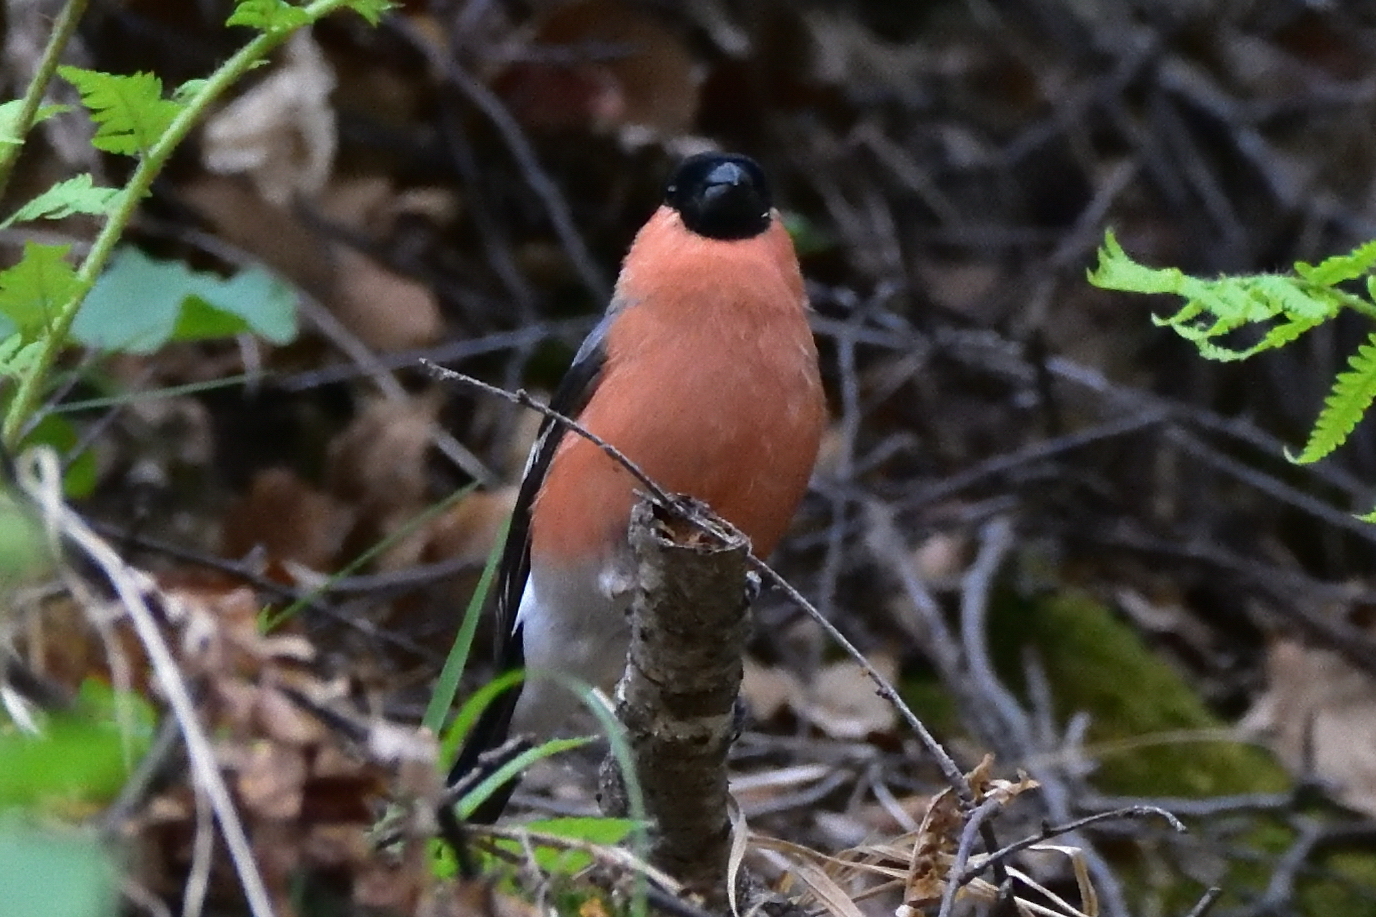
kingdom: Animalia
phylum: Chordata
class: Aves
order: Passeriformes
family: Fringillidae
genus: Pyrrhula
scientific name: Pyrrhula pyrrhula
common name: Eurasian bullfinch
